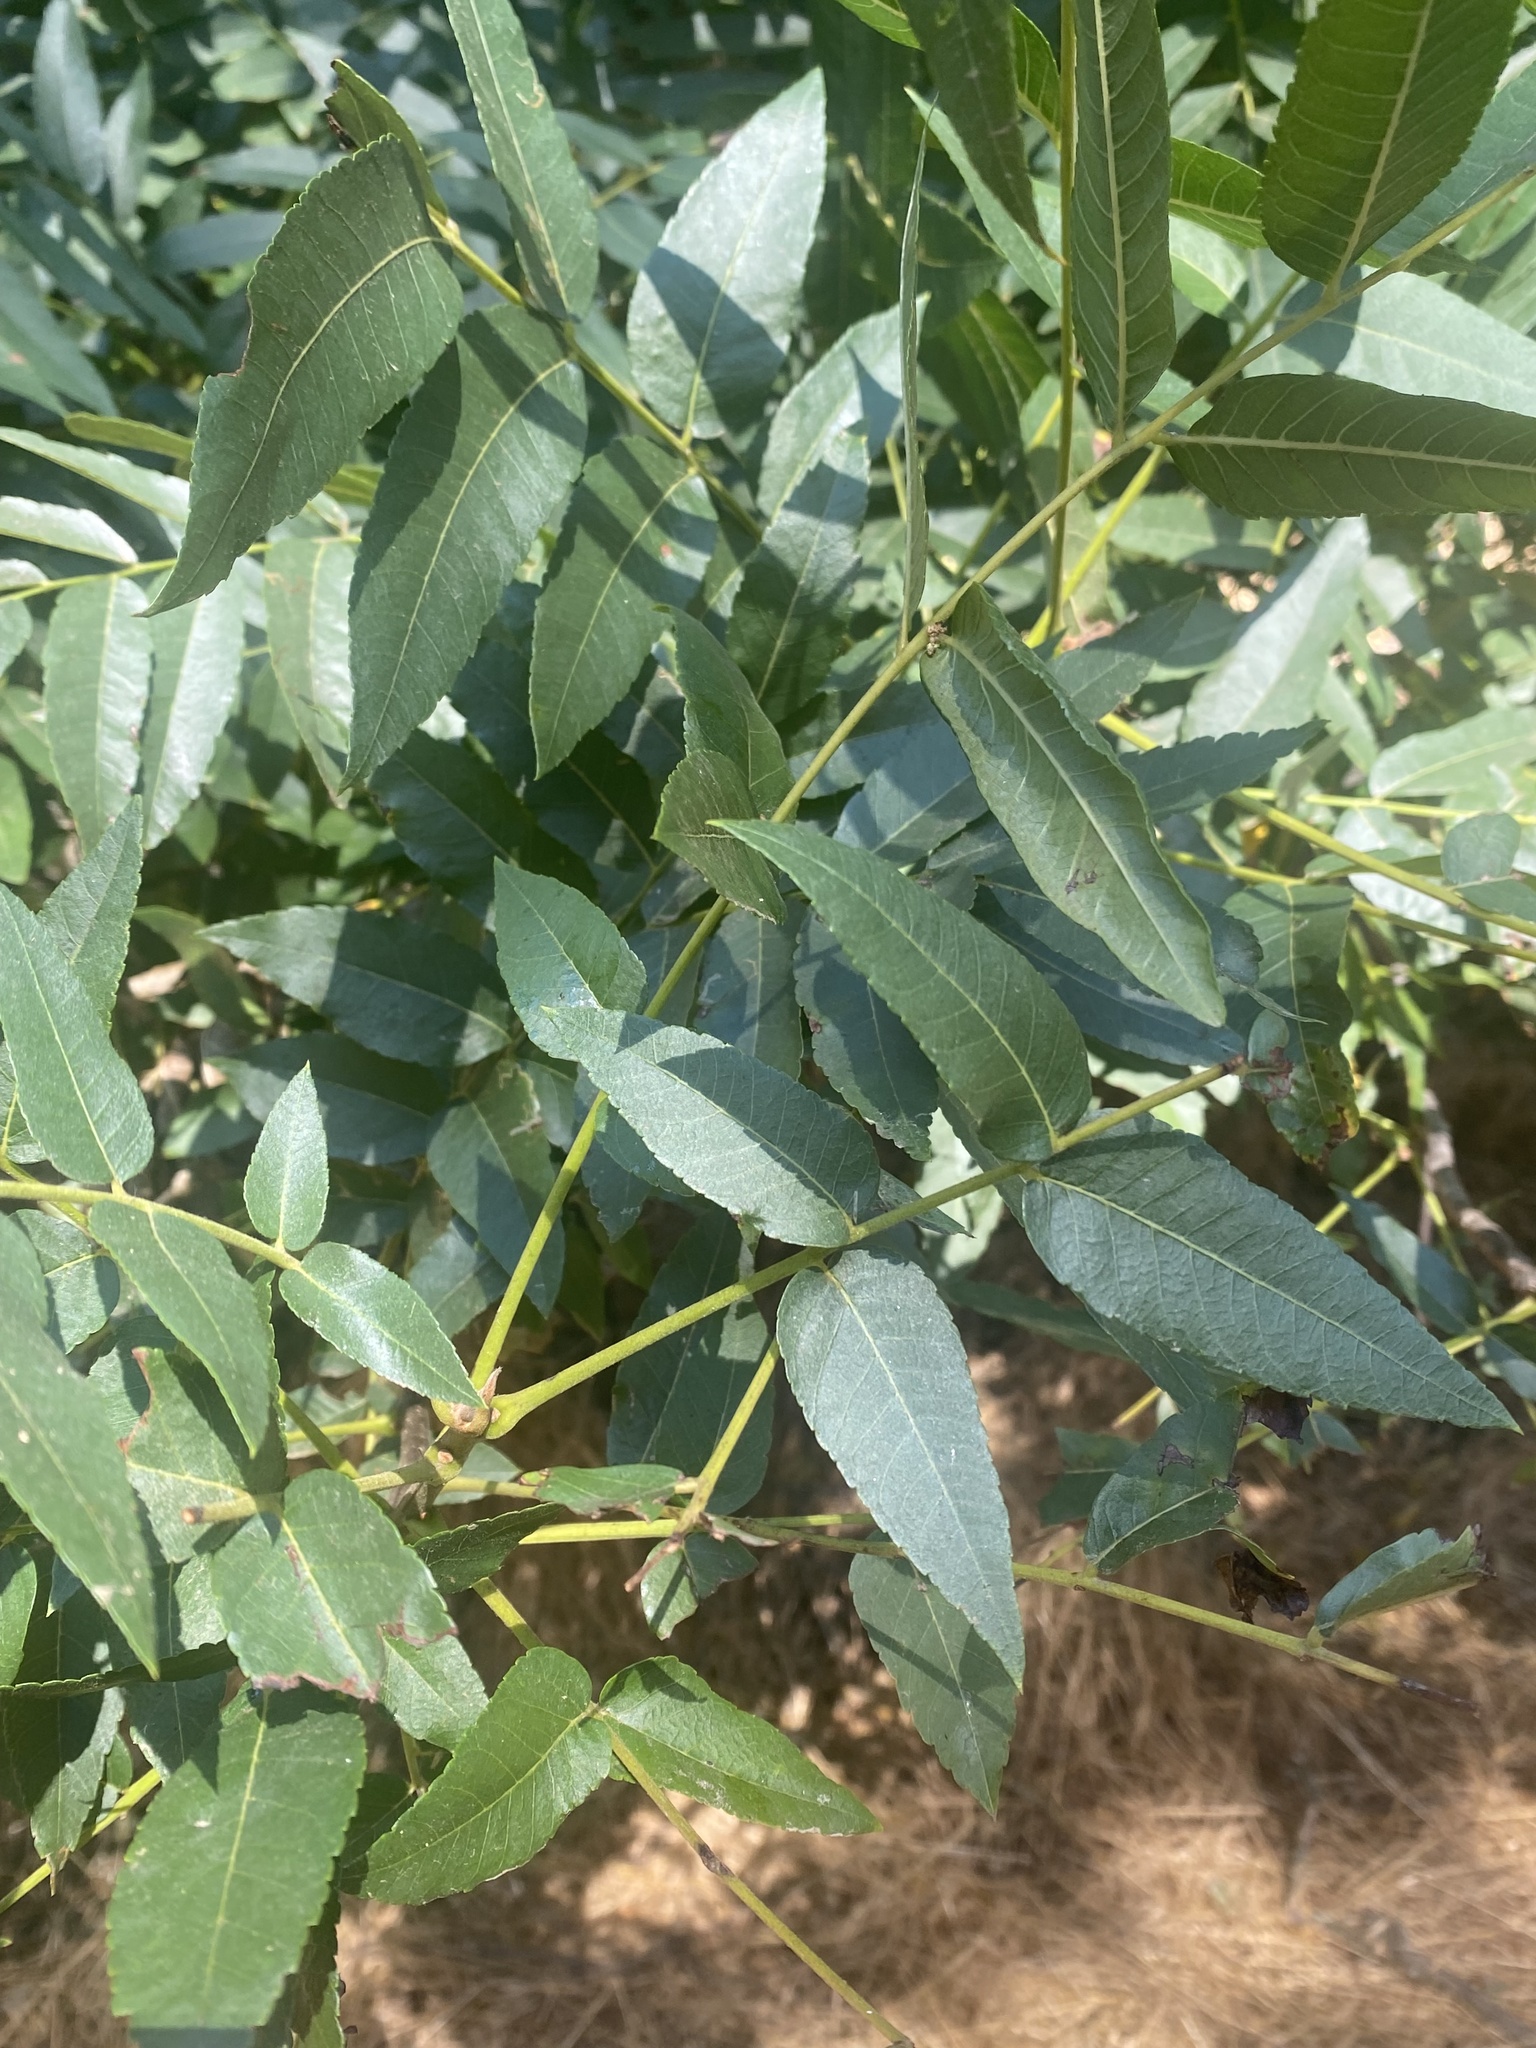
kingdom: Plantae
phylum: Tracheophyta
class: Magnoliopsida
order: Fagales
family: Juglandaceae
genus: Juglans
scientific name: Juglans hindsii
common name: Northern california black walnut
